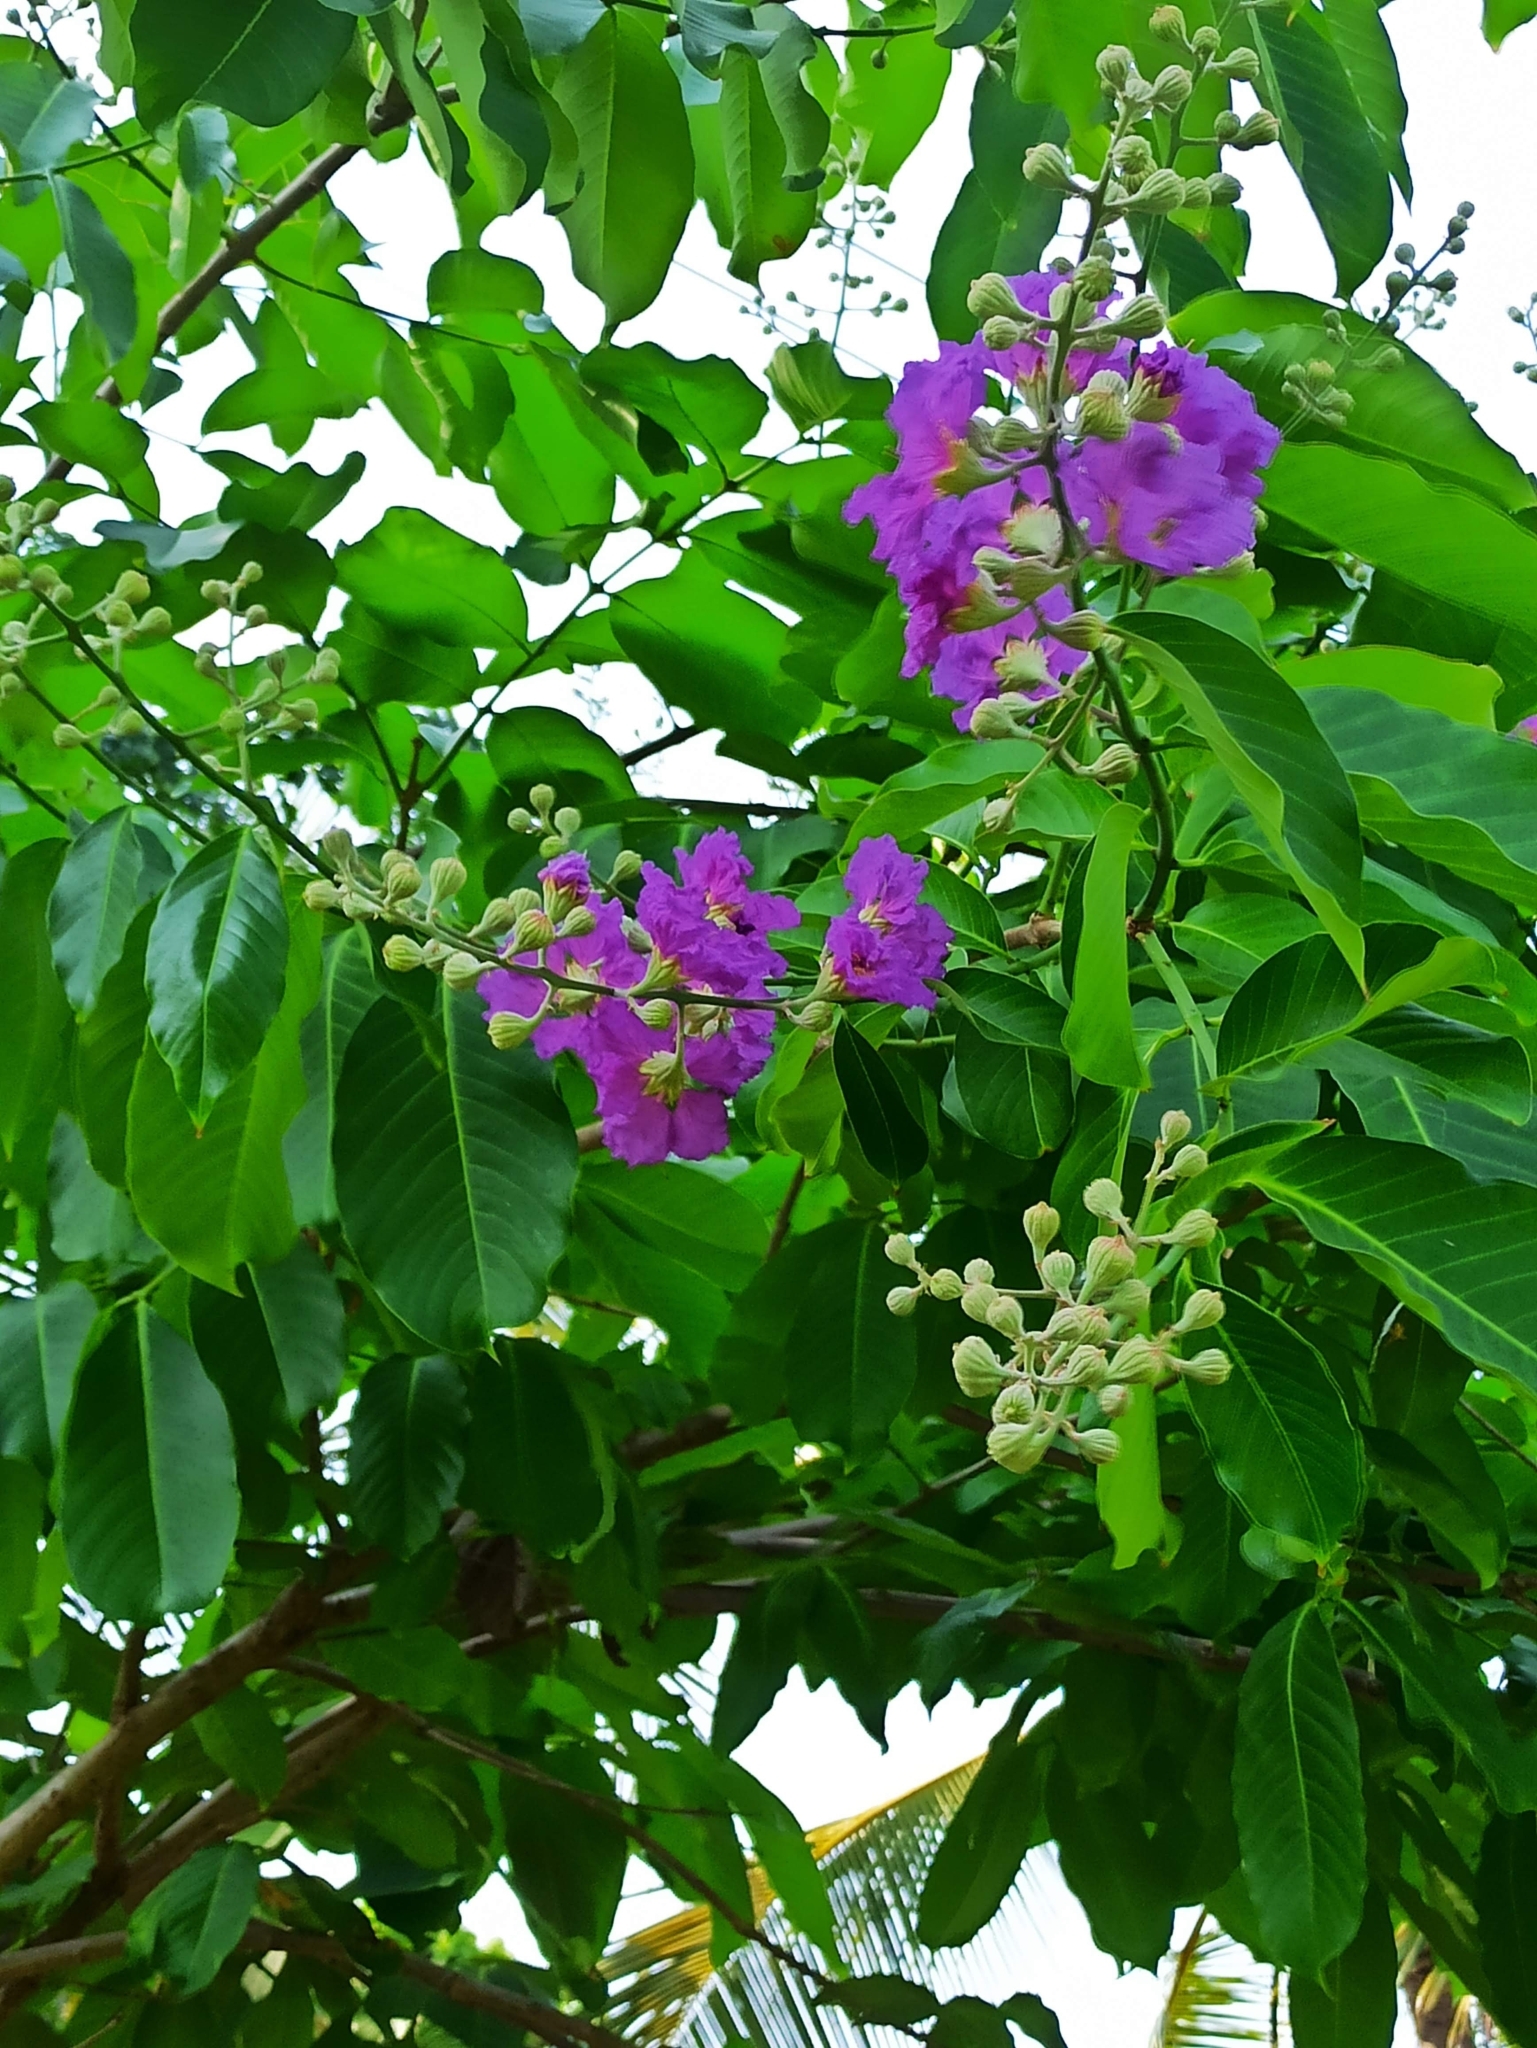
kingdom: Plantae
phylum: Tracheophyta
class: Magnoliopsida
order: Myrtales
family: Lythraceae
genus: Lagerstroemia
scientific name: Lagerstroemia speciosa
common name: Queen's crape-myrtle
